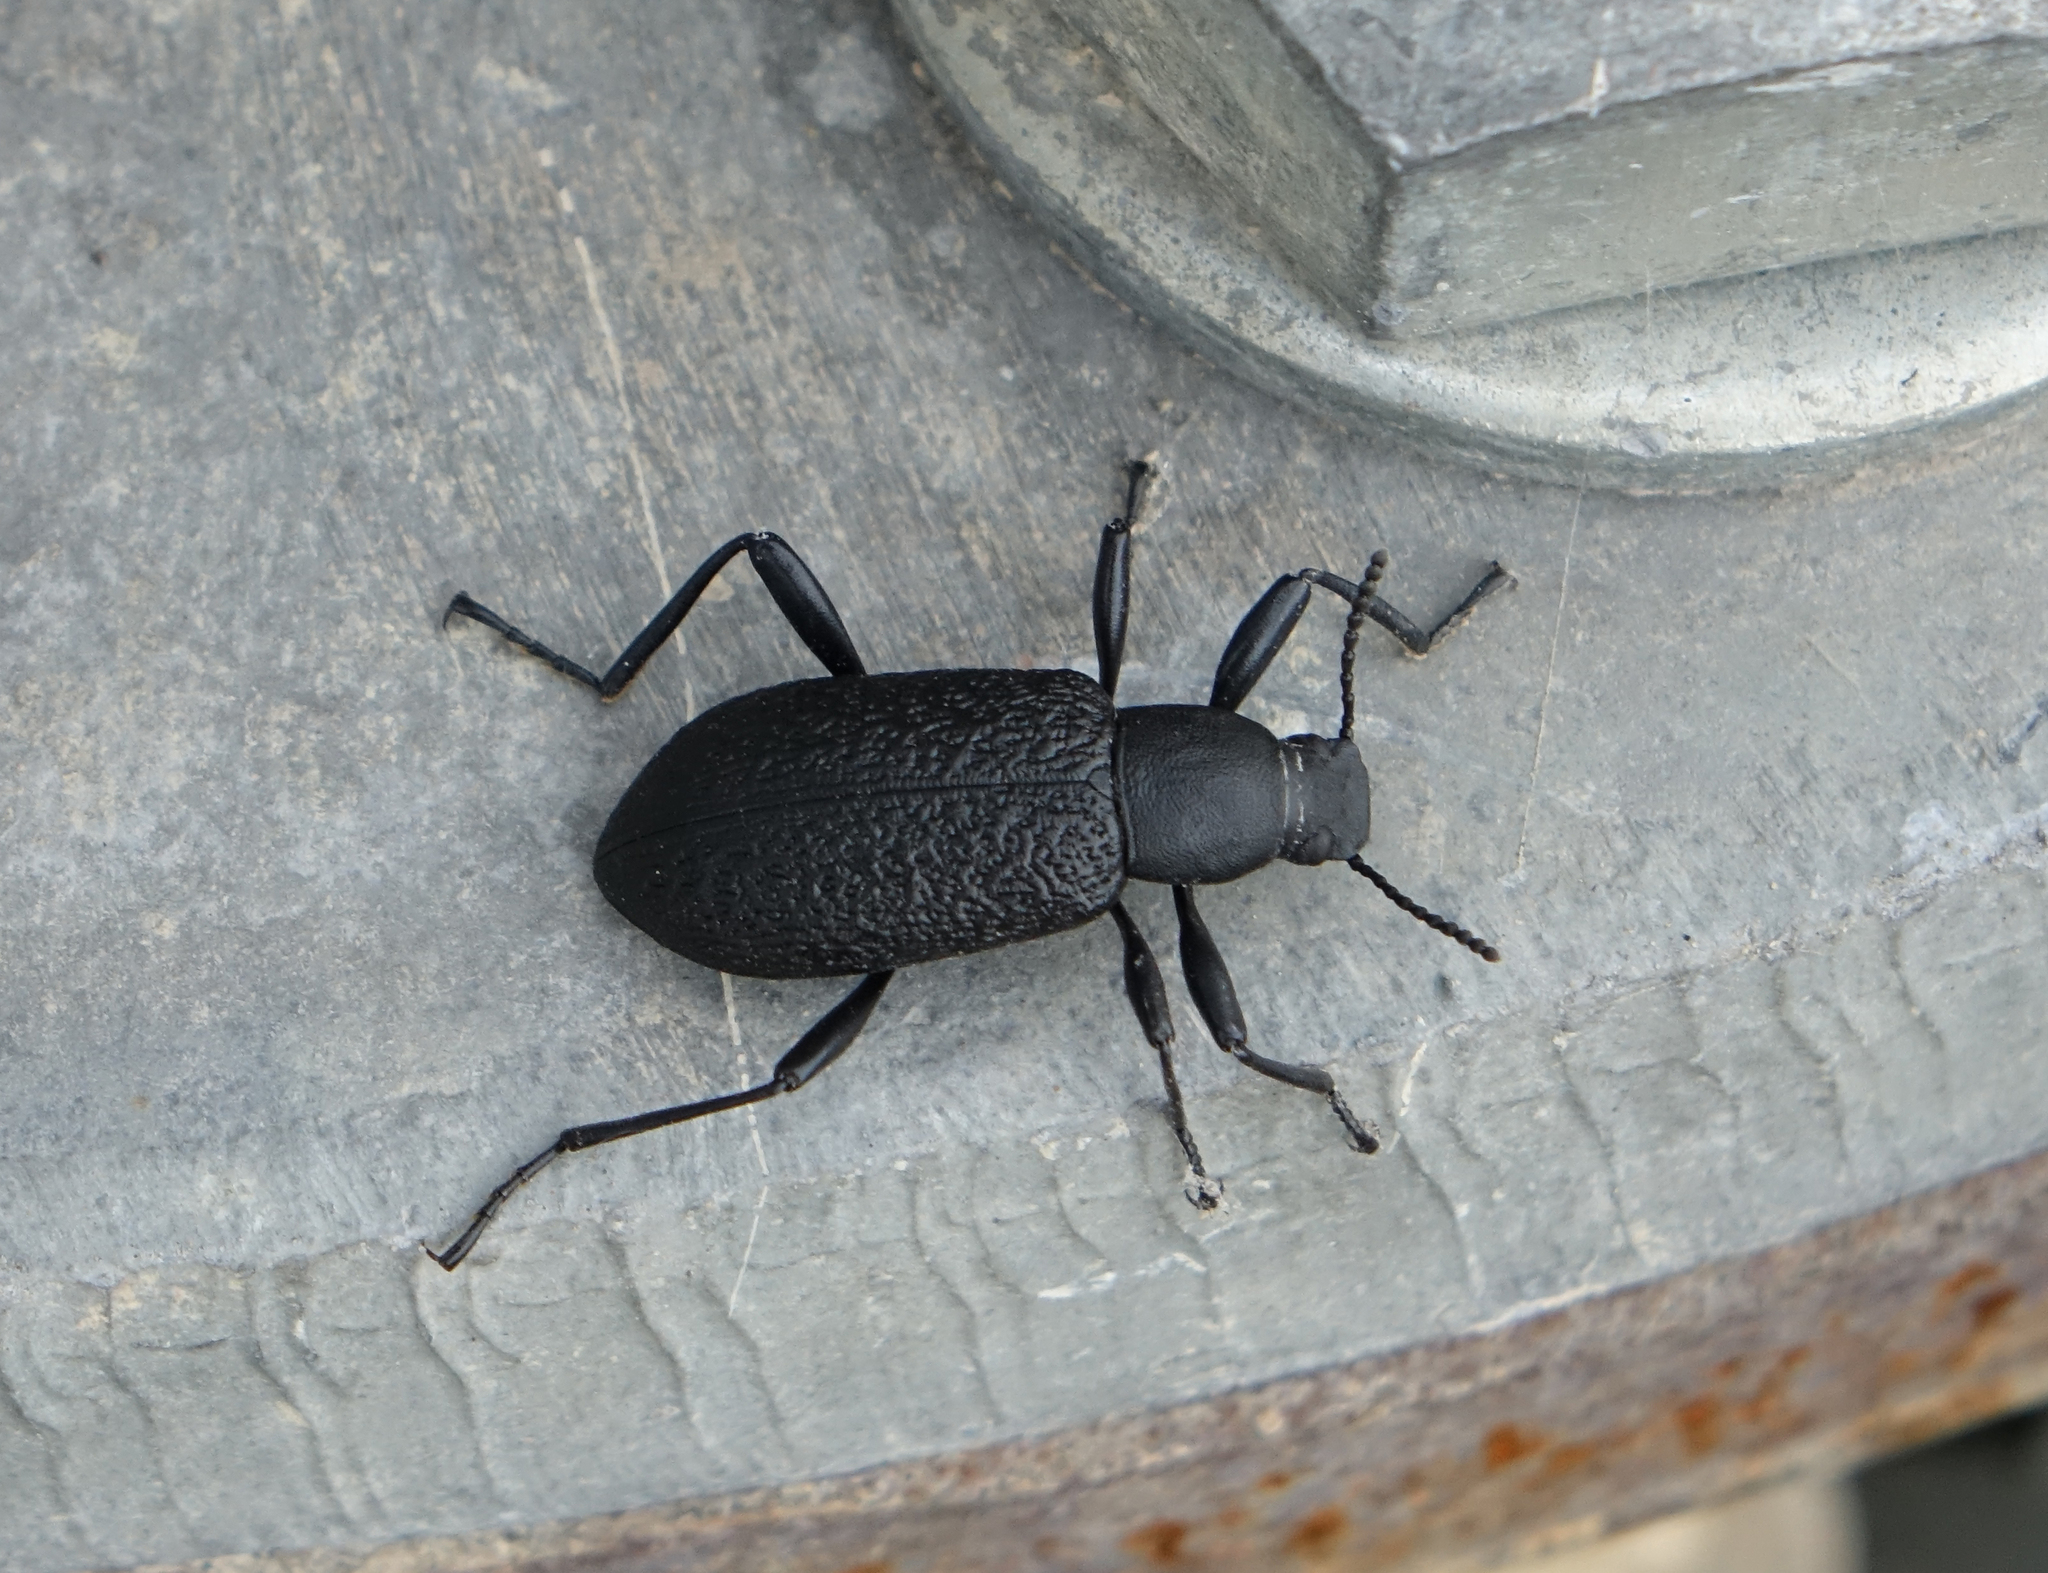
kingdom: Animalia
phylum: Arthropoda
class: Insecta
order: Coleoptera
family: Tenebrionidae
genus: Upis
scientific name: Upis ceramboides
